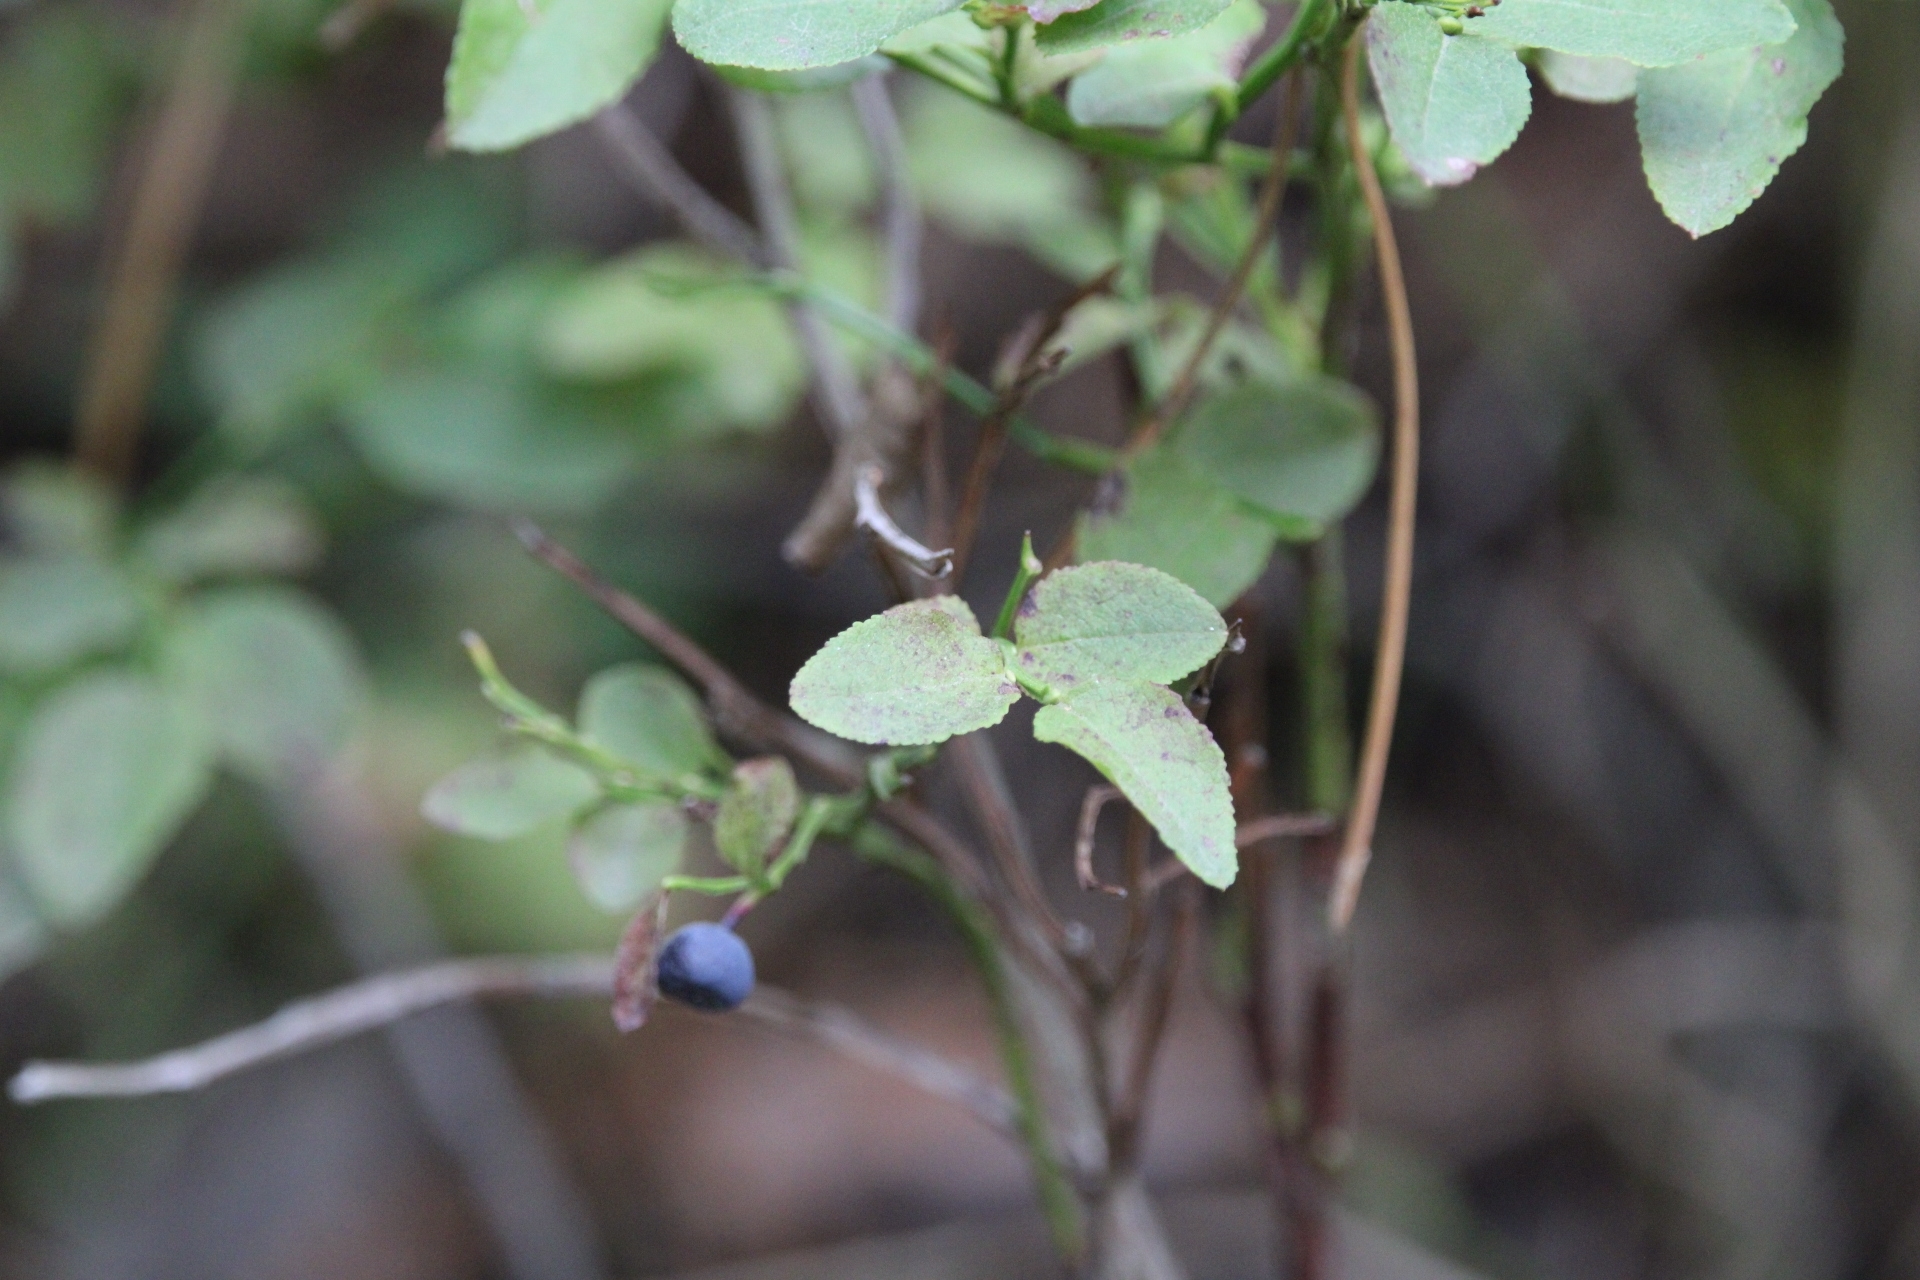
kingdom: Plantae
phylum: Tracheophyta
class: Magnoliopsida
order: Ericales
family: Ericaceae
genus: Vaccinium
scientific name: Vaccinium myrtillus
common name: Bilberry
